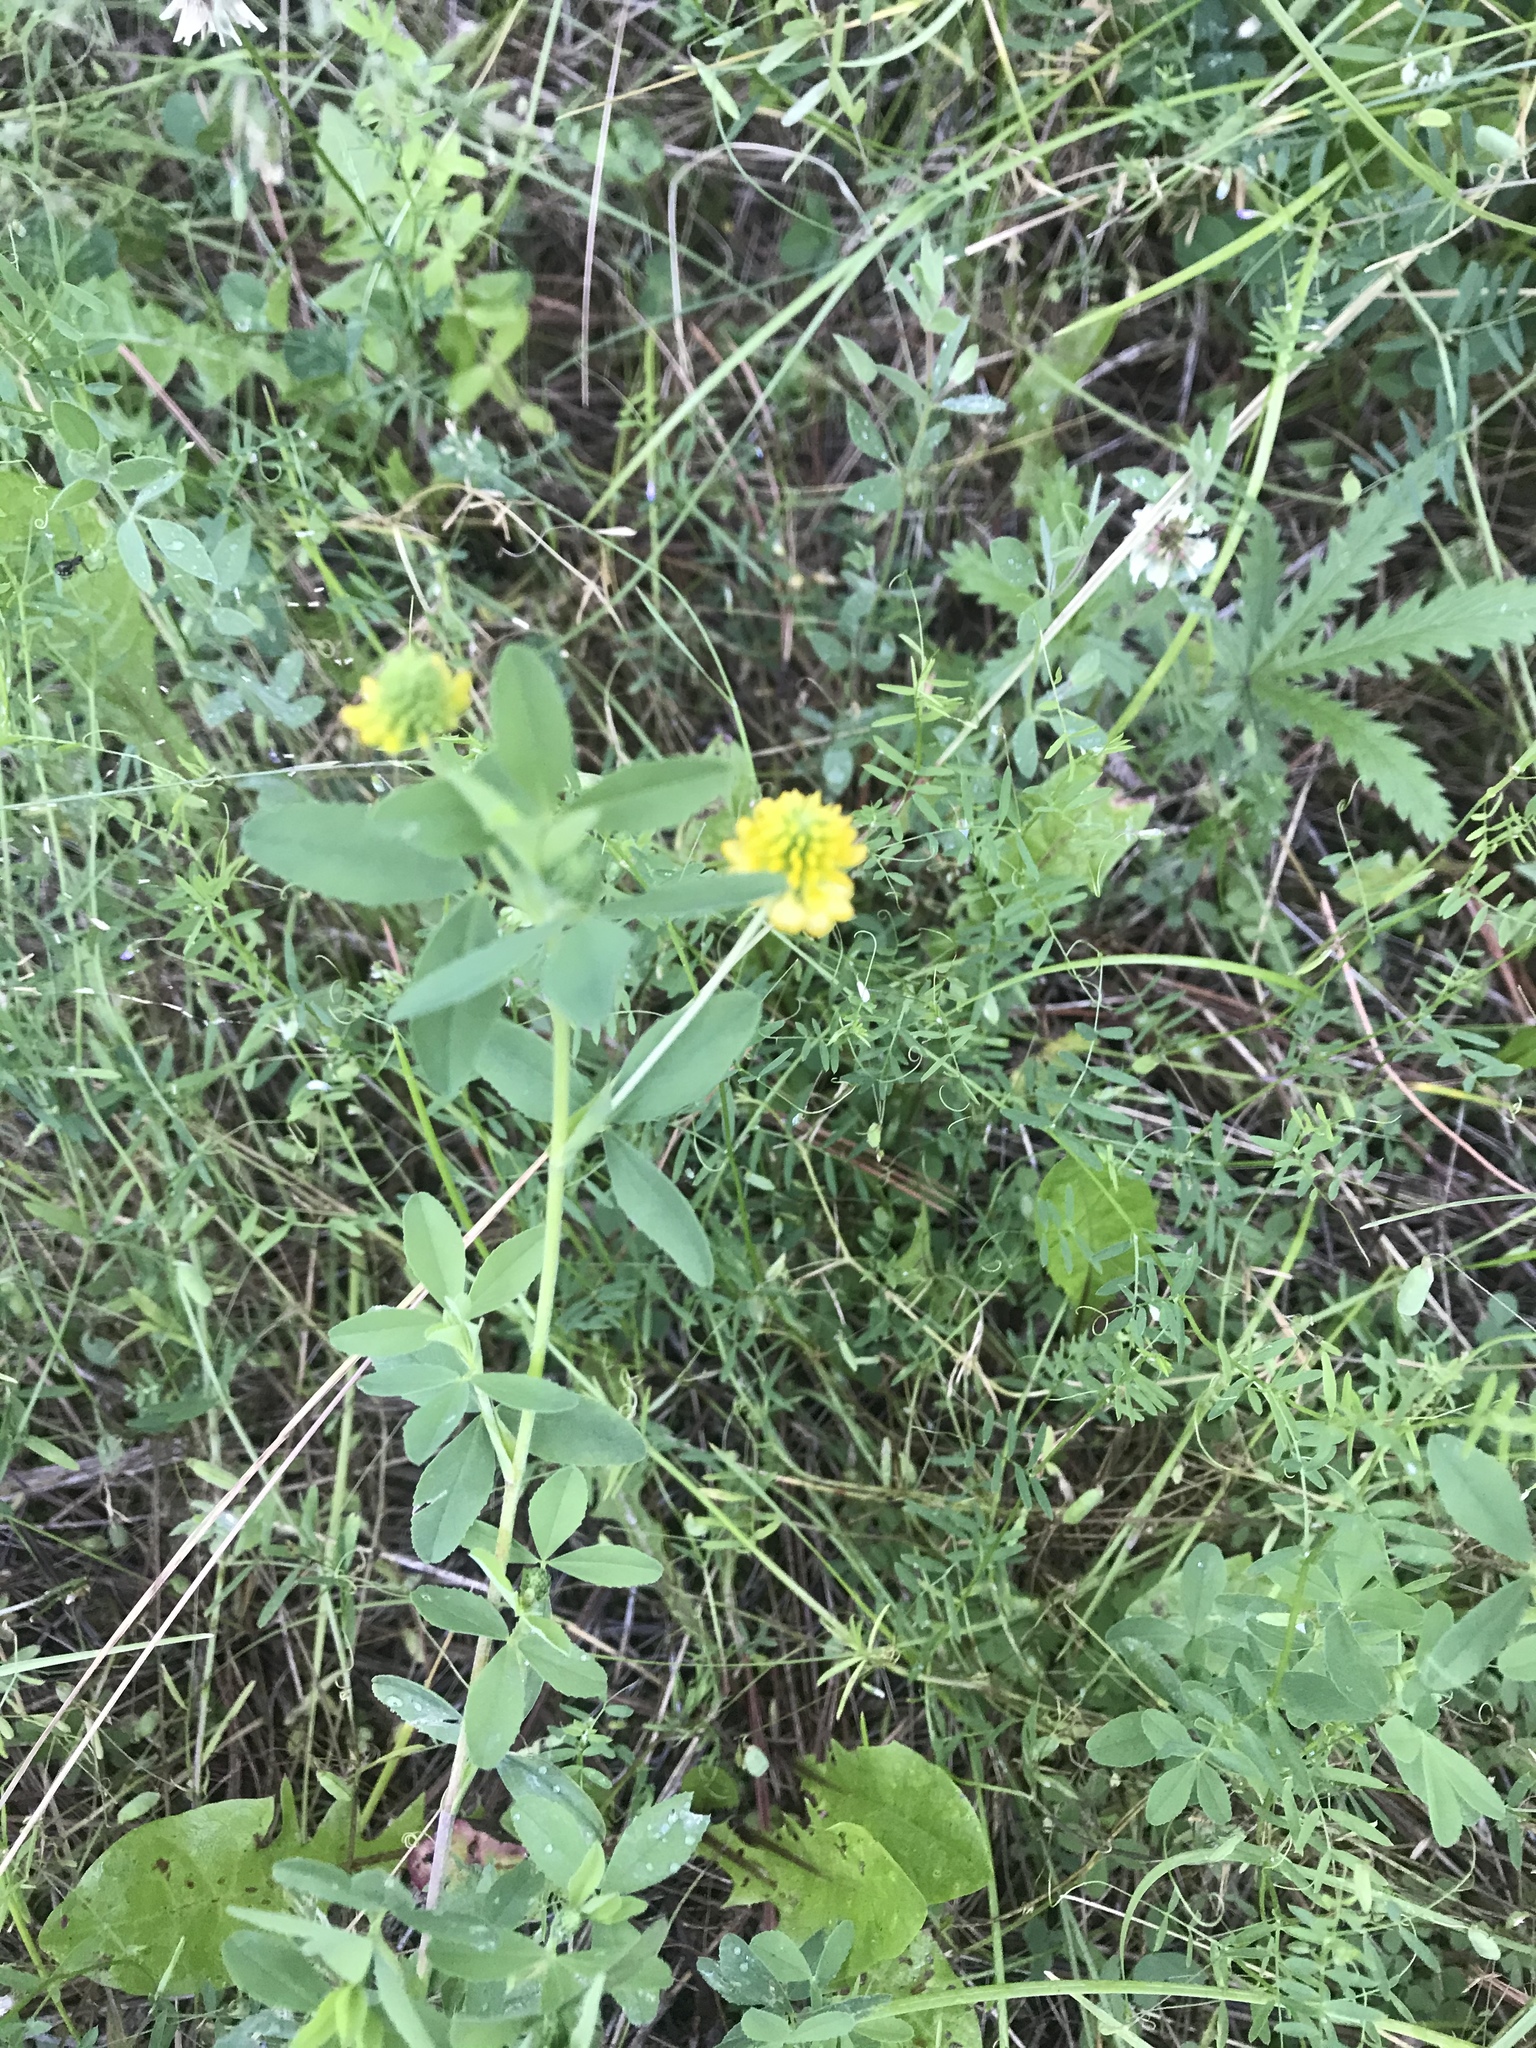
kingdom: Plantae
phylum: Tracheophyta
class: Magnoliopsida
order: Fabales
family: Fabaceae
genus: Trifolium
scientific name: Trifolium aureum
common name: Golden clover
